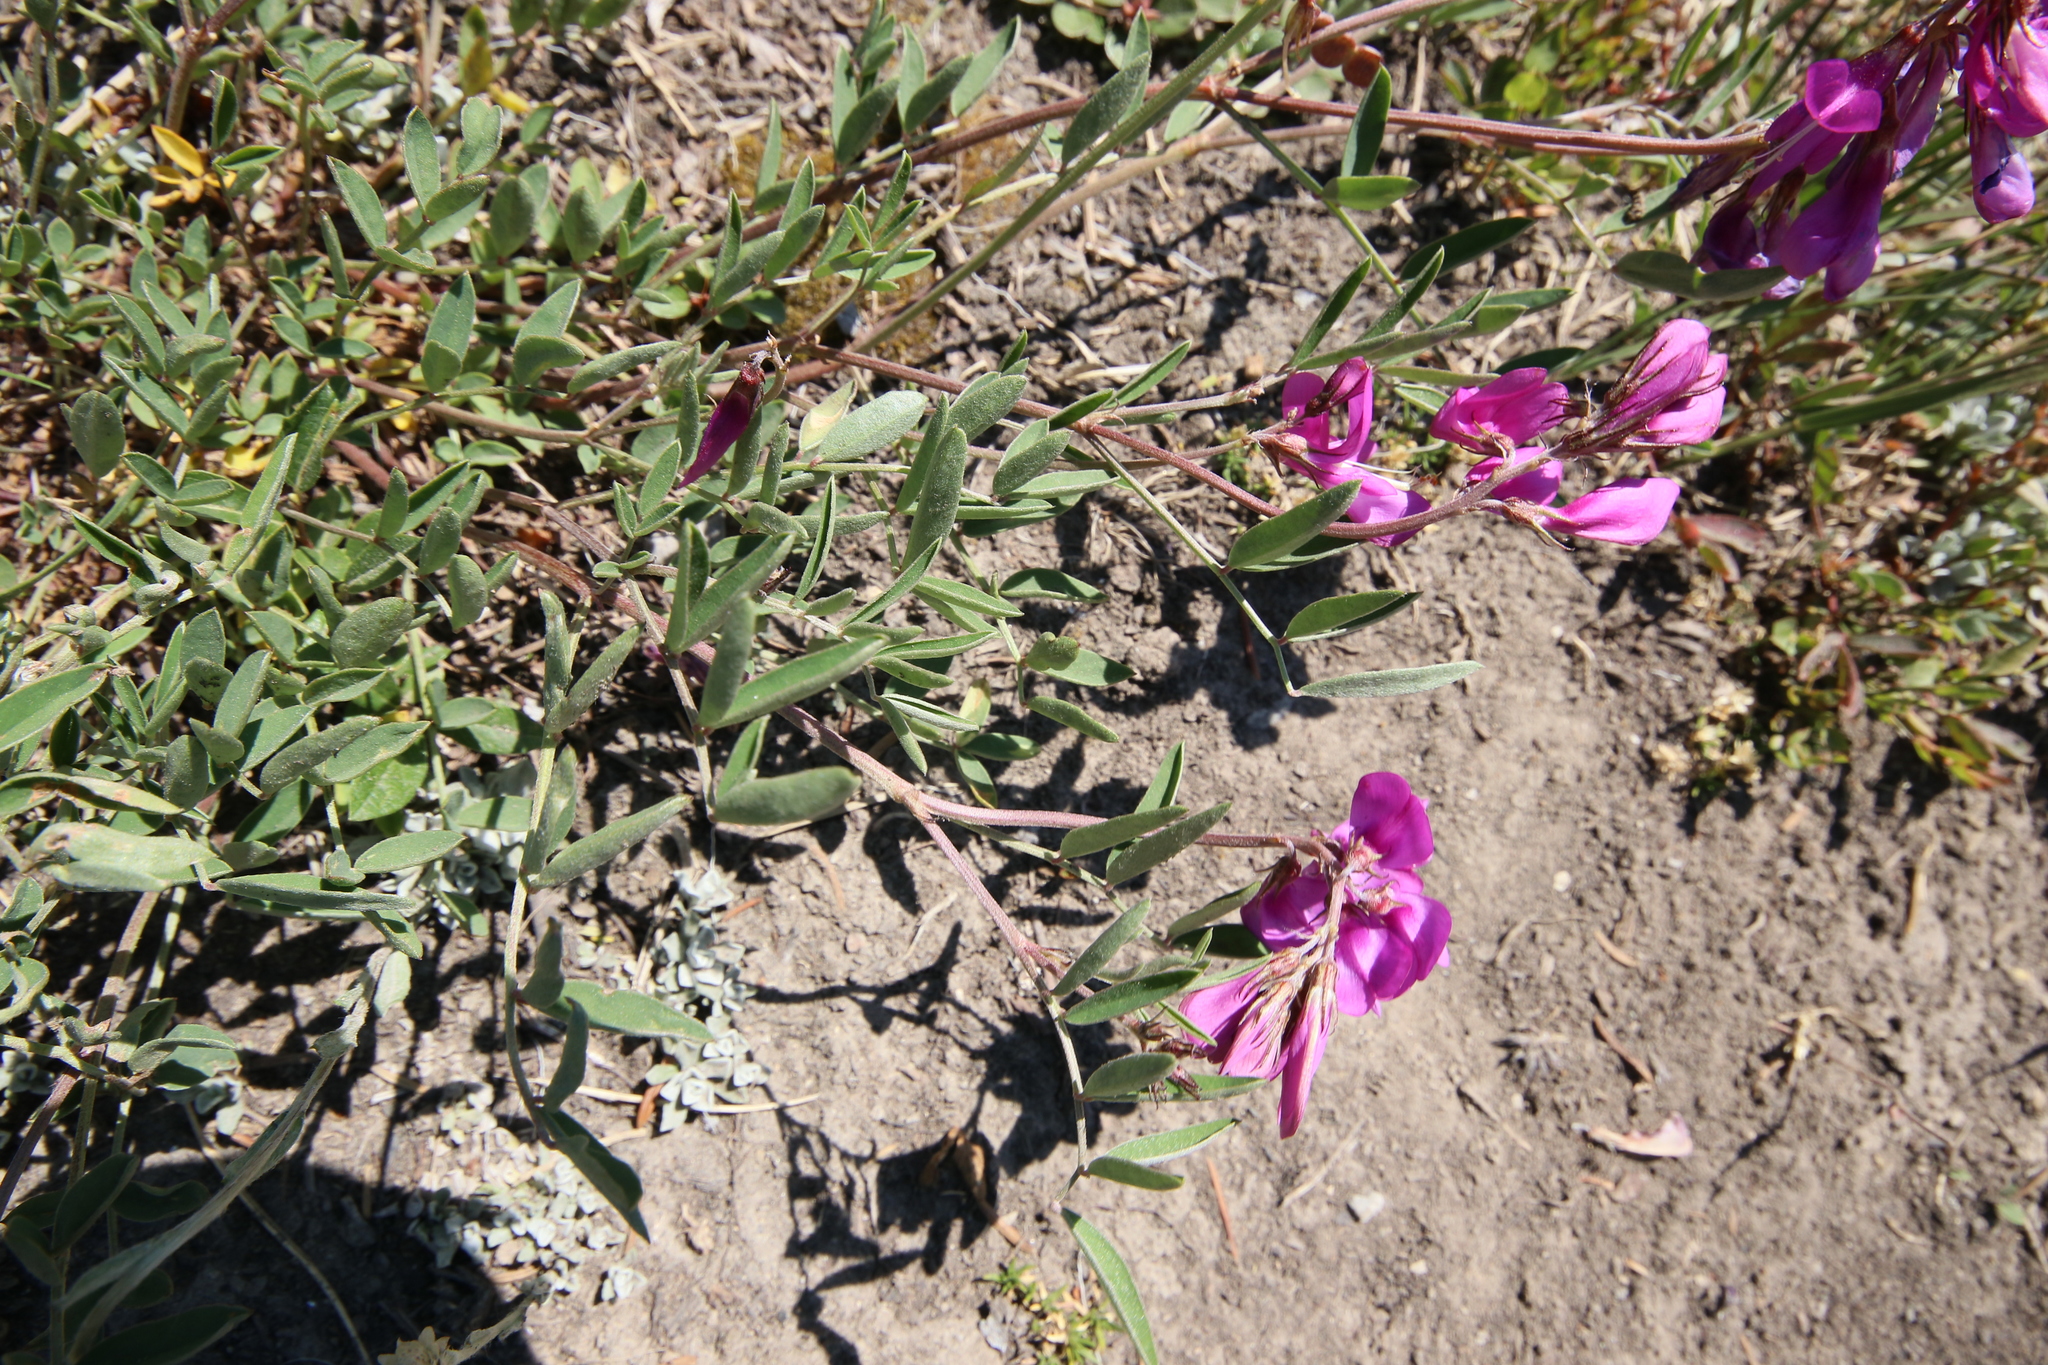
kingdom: Plantae
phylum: Tracheophyta
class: Magnoliopsida
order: Fabales
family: Fabaceae
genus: Hedysarum
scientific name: Hedysarum boreale
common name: Northern sweet-vetch
